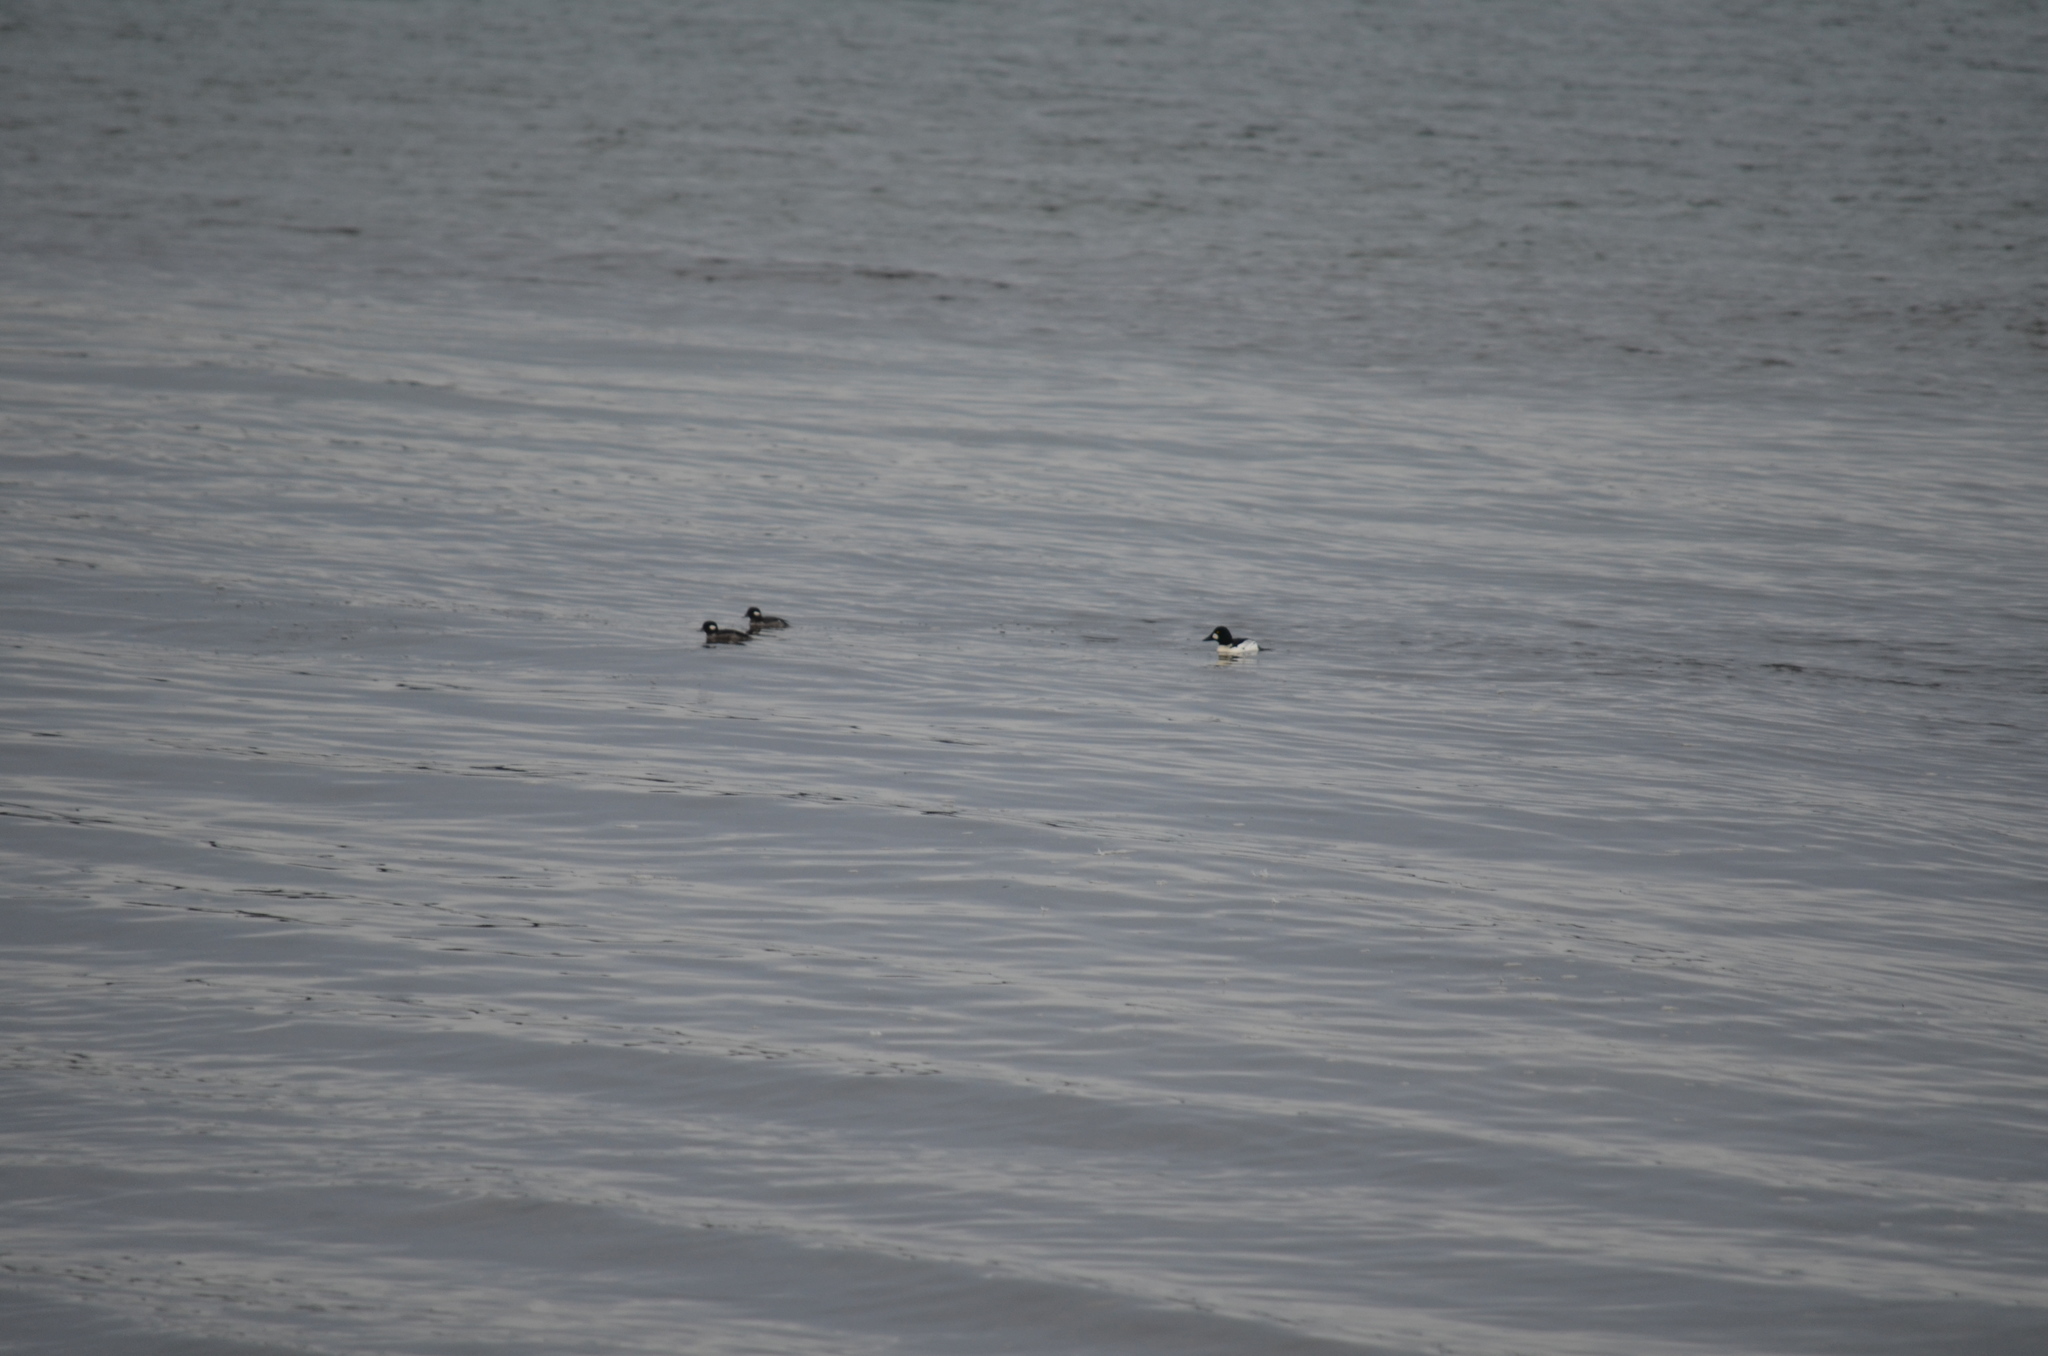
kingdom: Animalia
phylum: Chordata
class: Aves
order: Anseriformes
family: Anatidae
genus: Bucephala
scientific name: Bucephala clangula
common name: Common goldeneye
